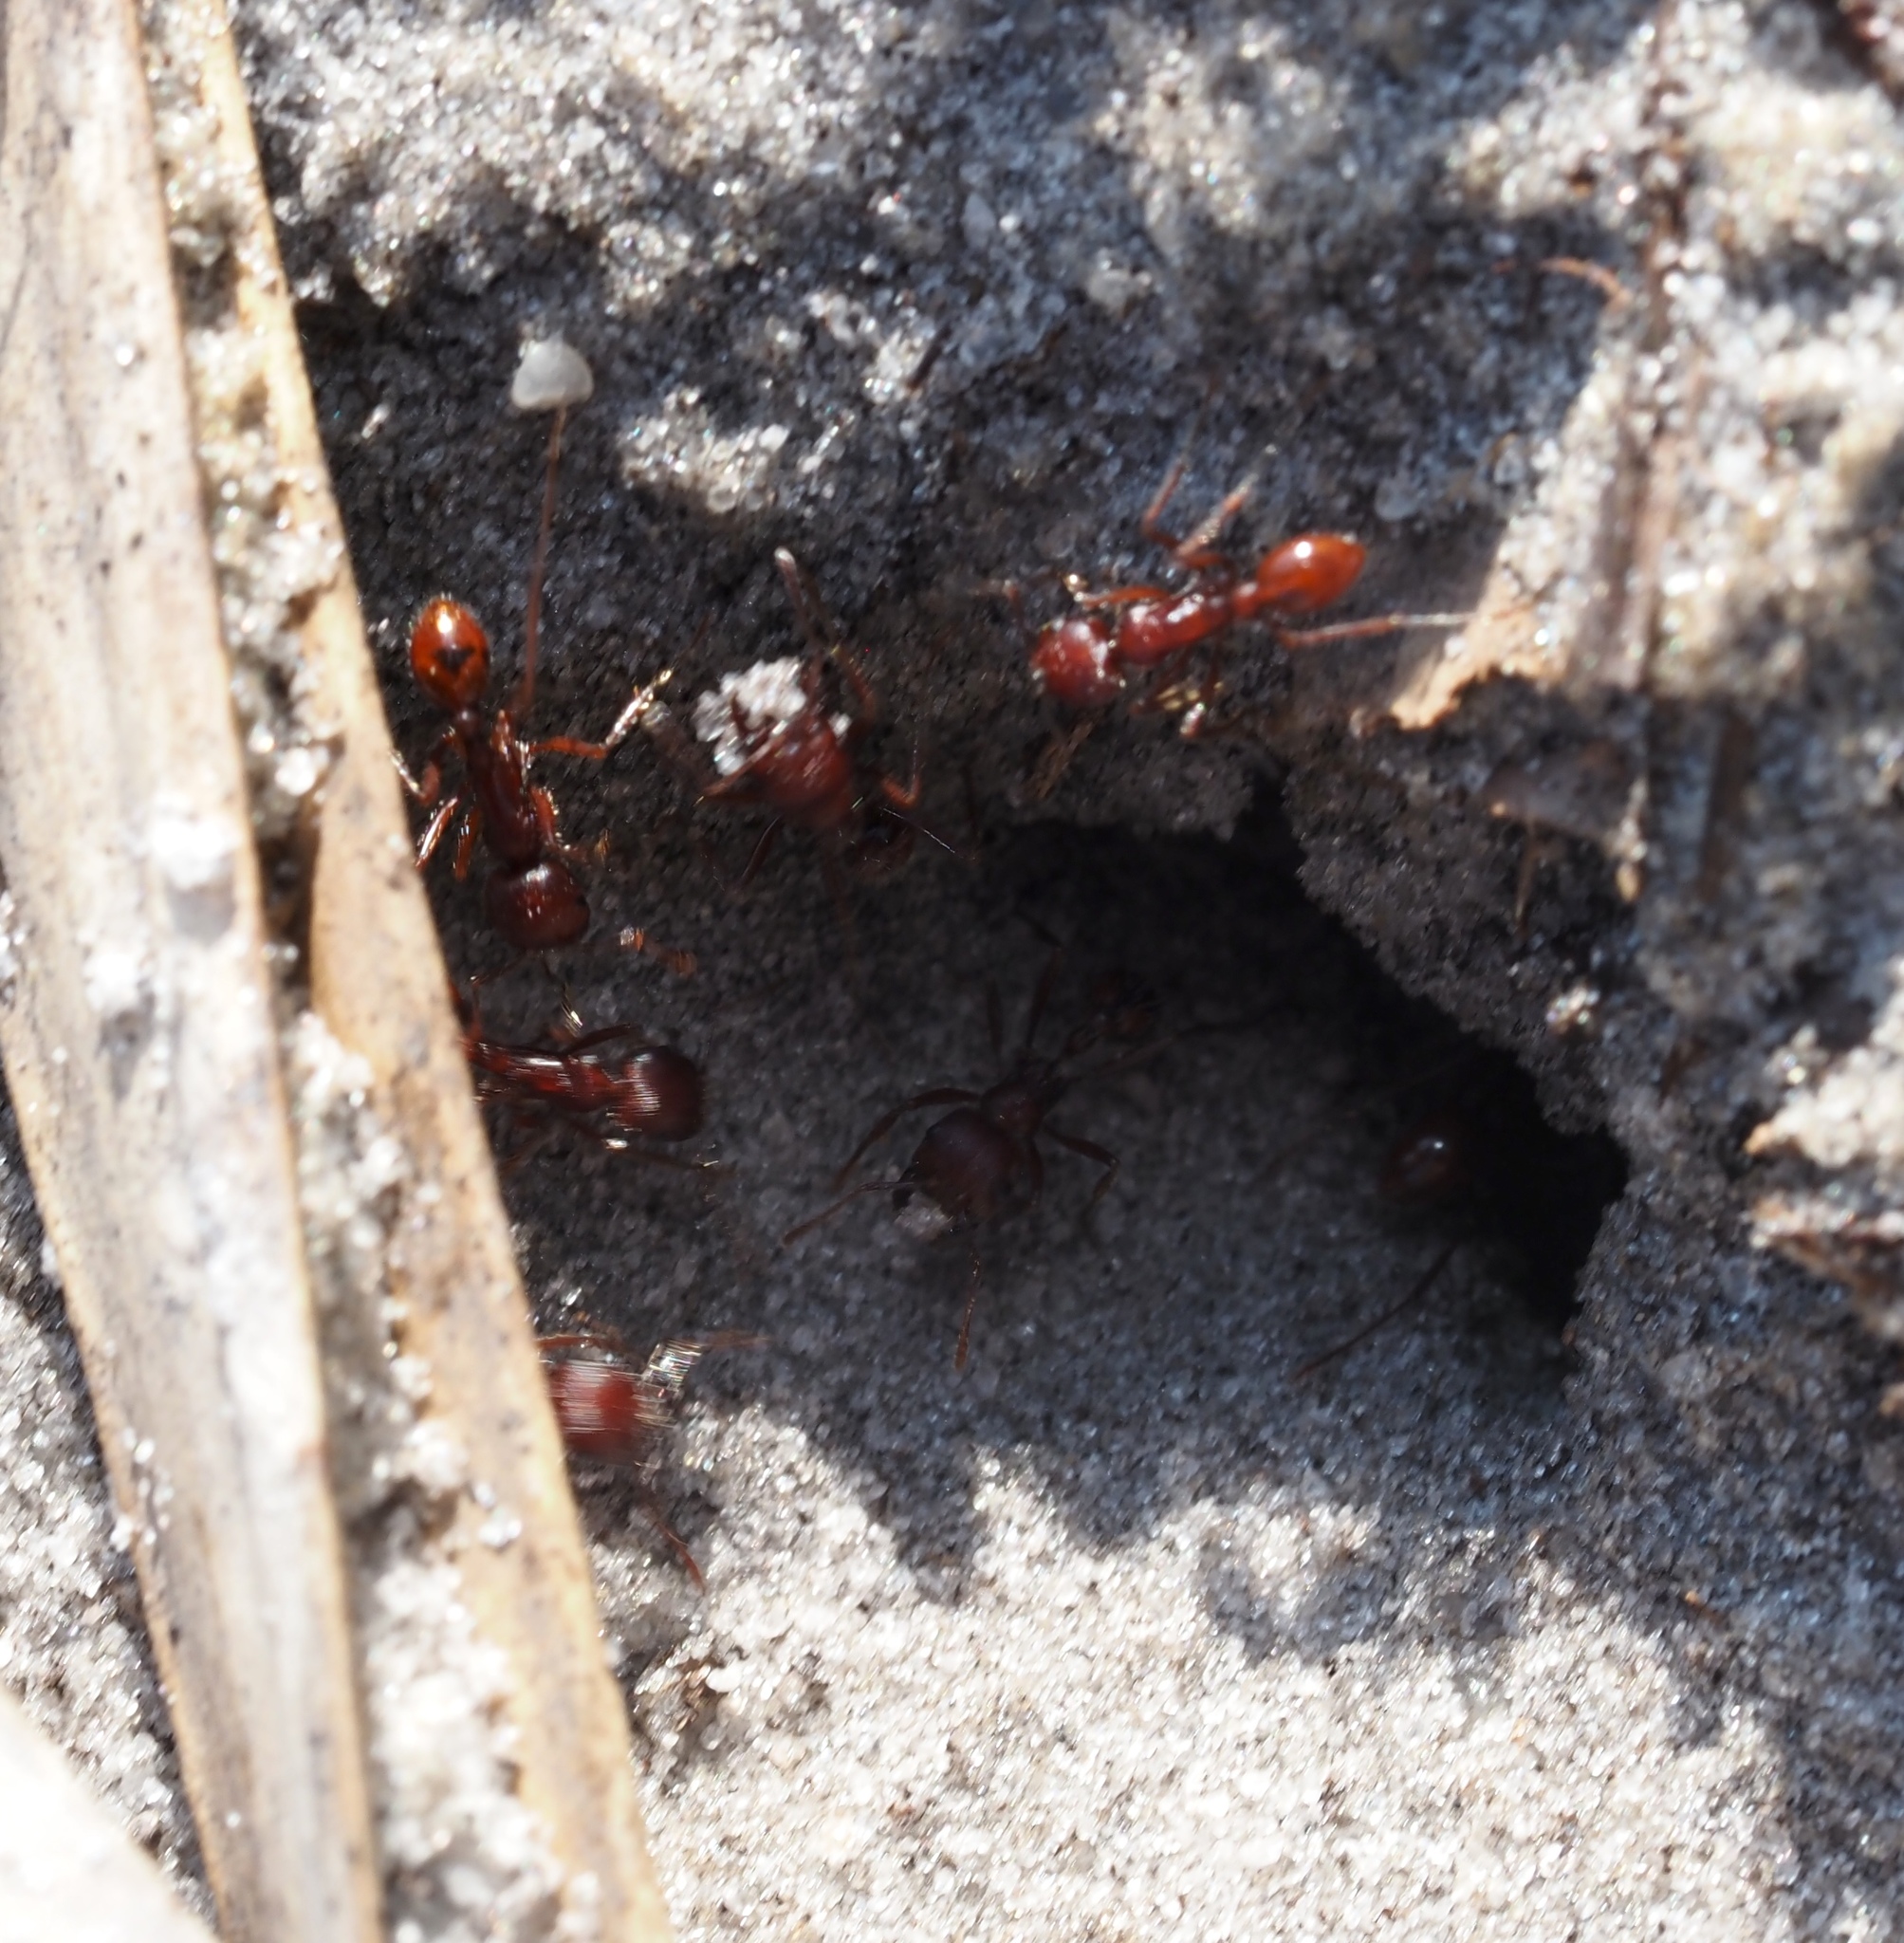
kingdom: Animalia
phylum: Arthropoda
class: Insecta
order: Hymenoptera
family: Formicidae
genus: Pogonomyrmex
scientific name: Pogonomyrmex badius
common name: Florida harvester ant
